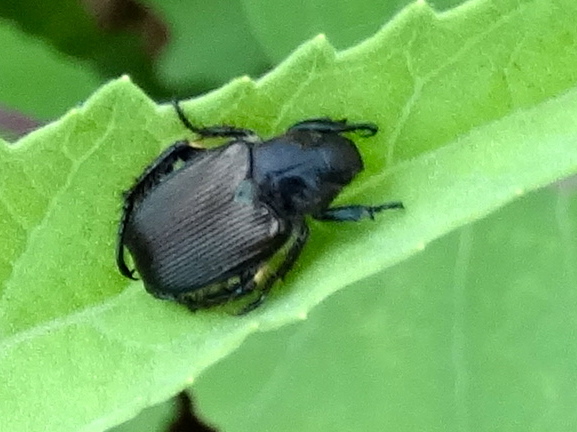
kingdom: Animalia
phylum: Arthropoda
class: Insecta
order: Coleoptera
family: Scarabaeidae
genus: Strigoderma
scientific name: Strigoderma
